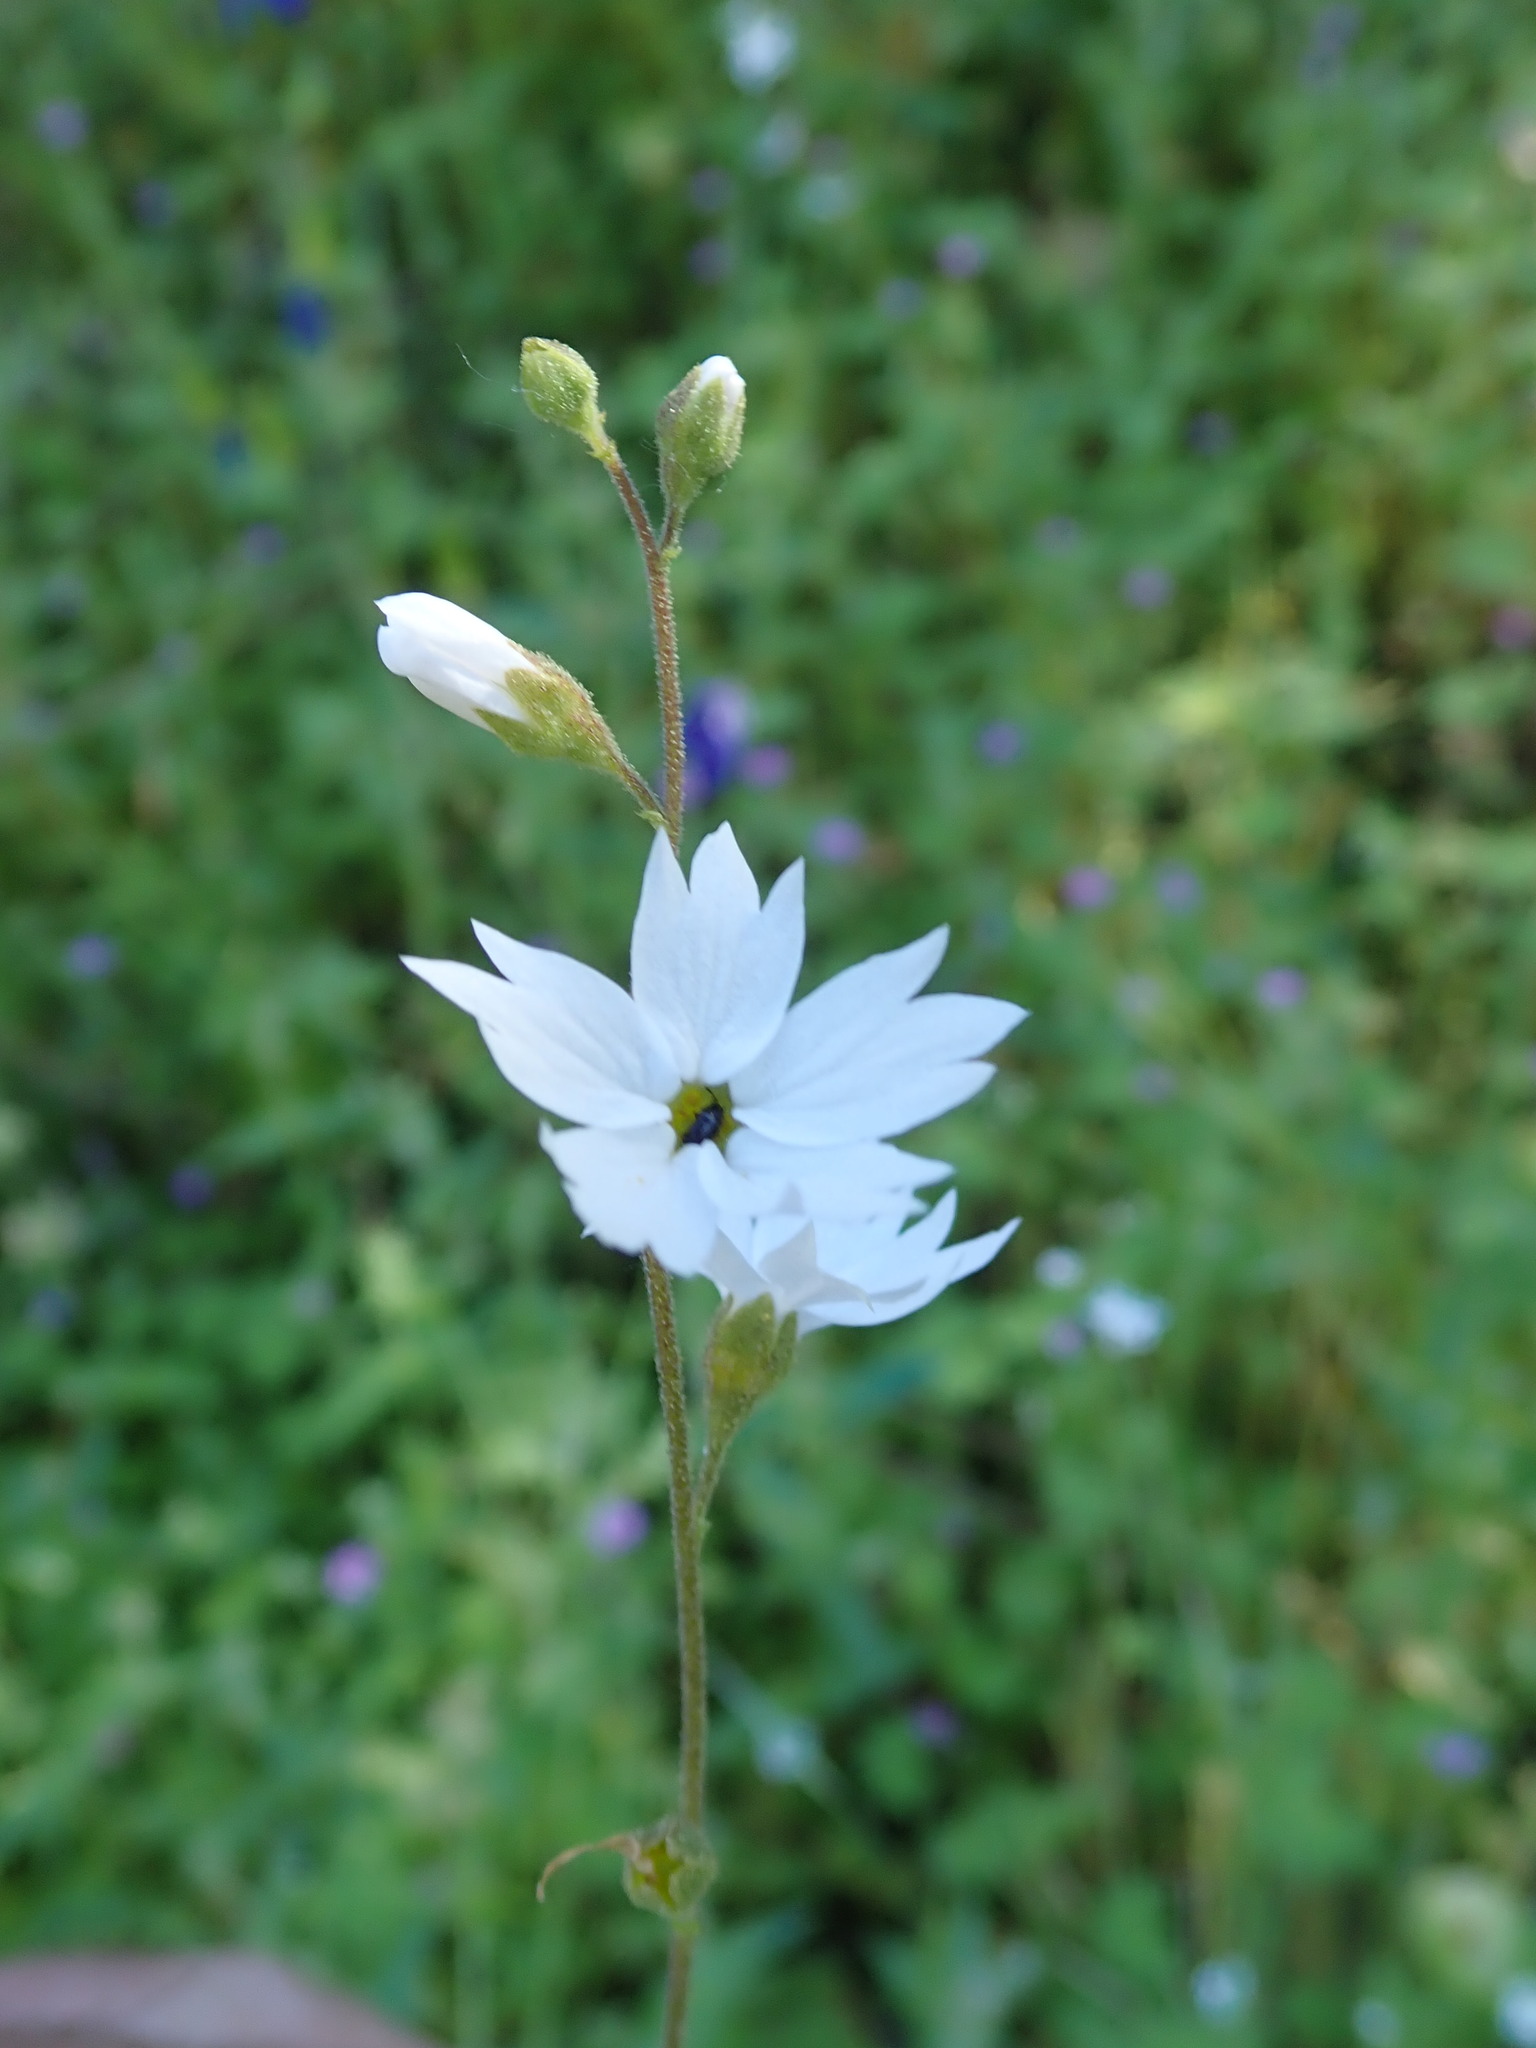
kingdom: Plantae
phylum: Tracheophyta
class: Magnoliopsida
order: Saxifragales
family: Saxifragaceae
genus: Lithophragma
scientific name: Lithophragma affine
